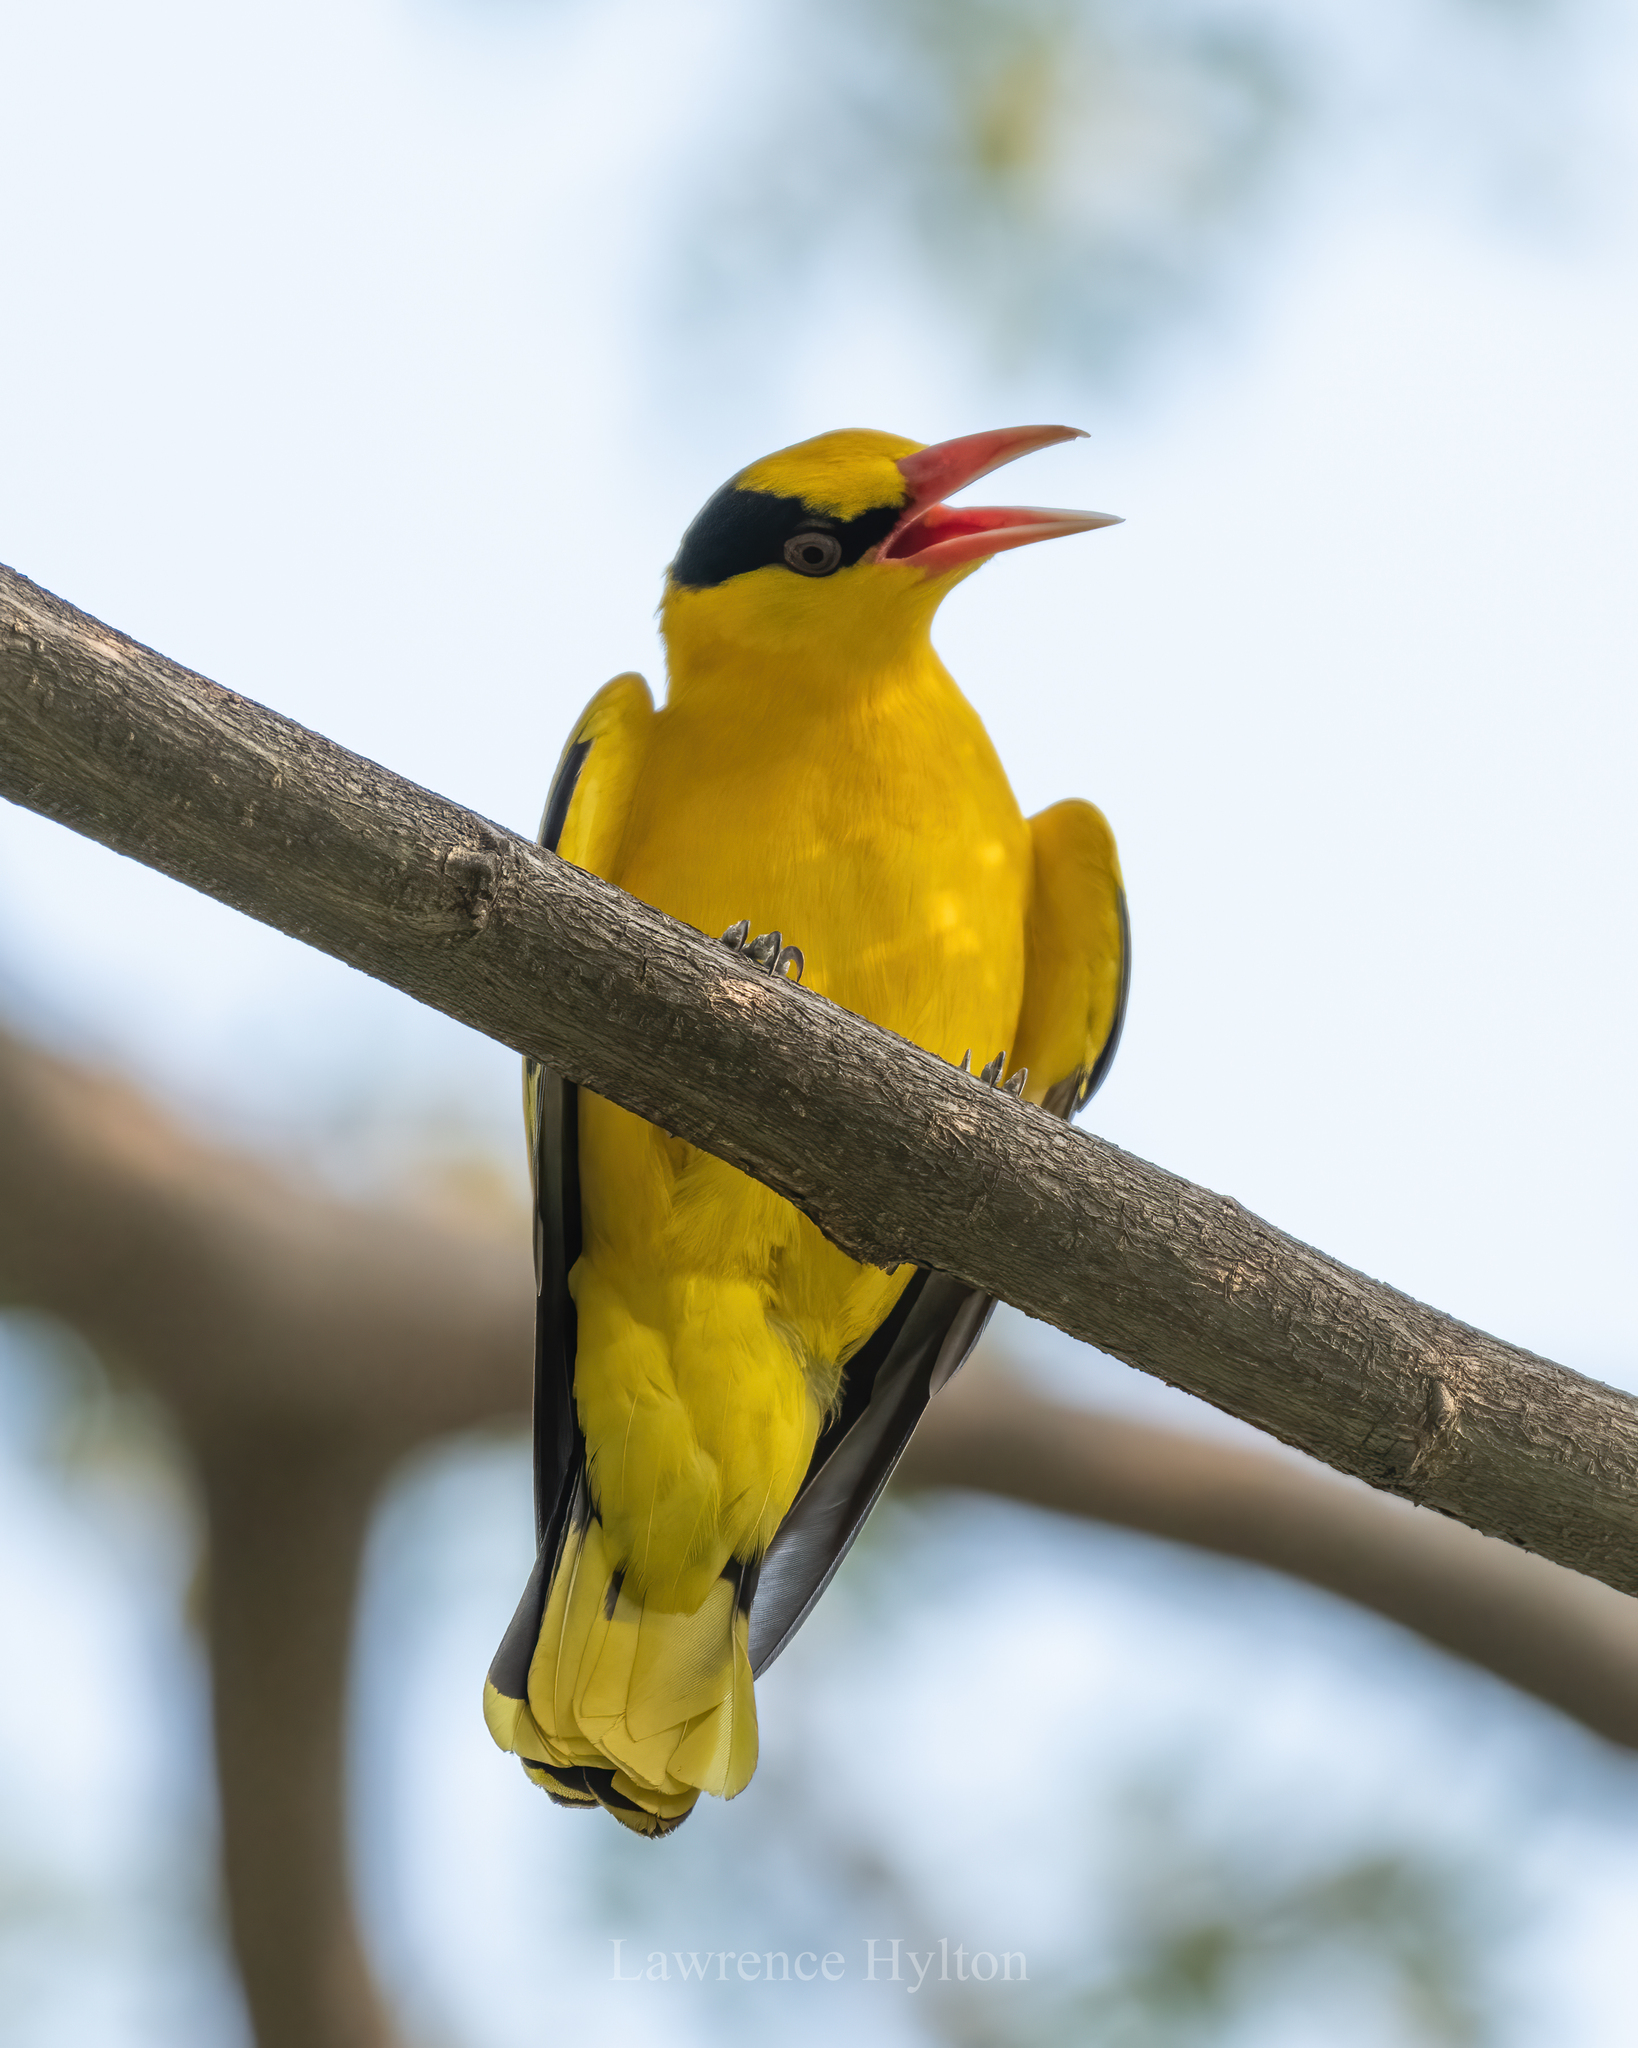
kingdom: Animalia
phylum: Chordata
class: Aves
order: Passeriformes
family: Oriolidae
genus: Oriolus
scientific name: Oriolus chinensis
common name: Black-naped oriole
